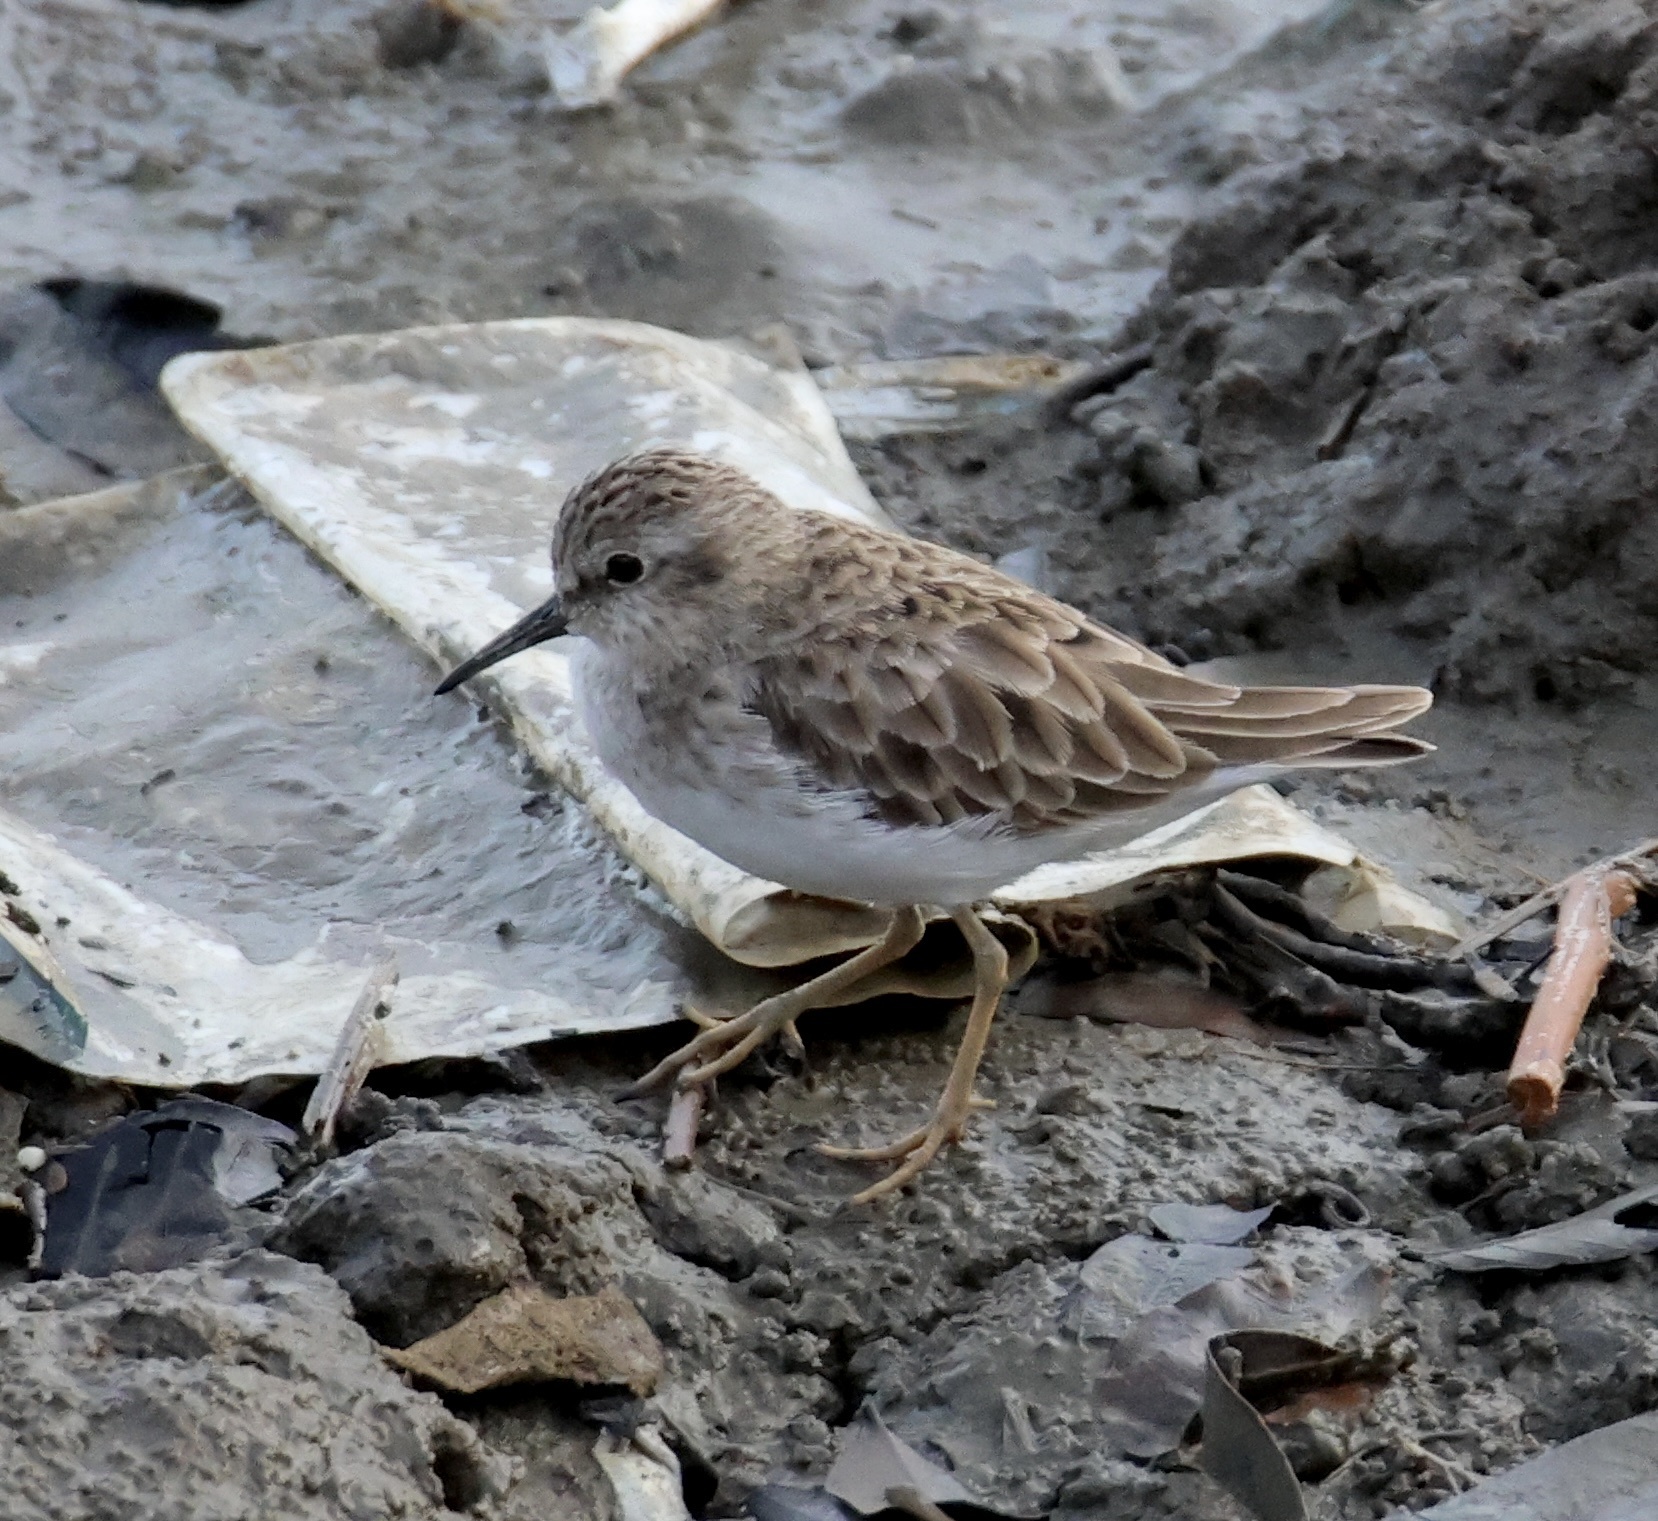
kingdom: Animalia
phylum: Chordata
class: Aves
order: Charadriiformes
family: Scolopacidae
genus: Calidris
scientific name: Calidris minutilla
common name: Least sandpiper
